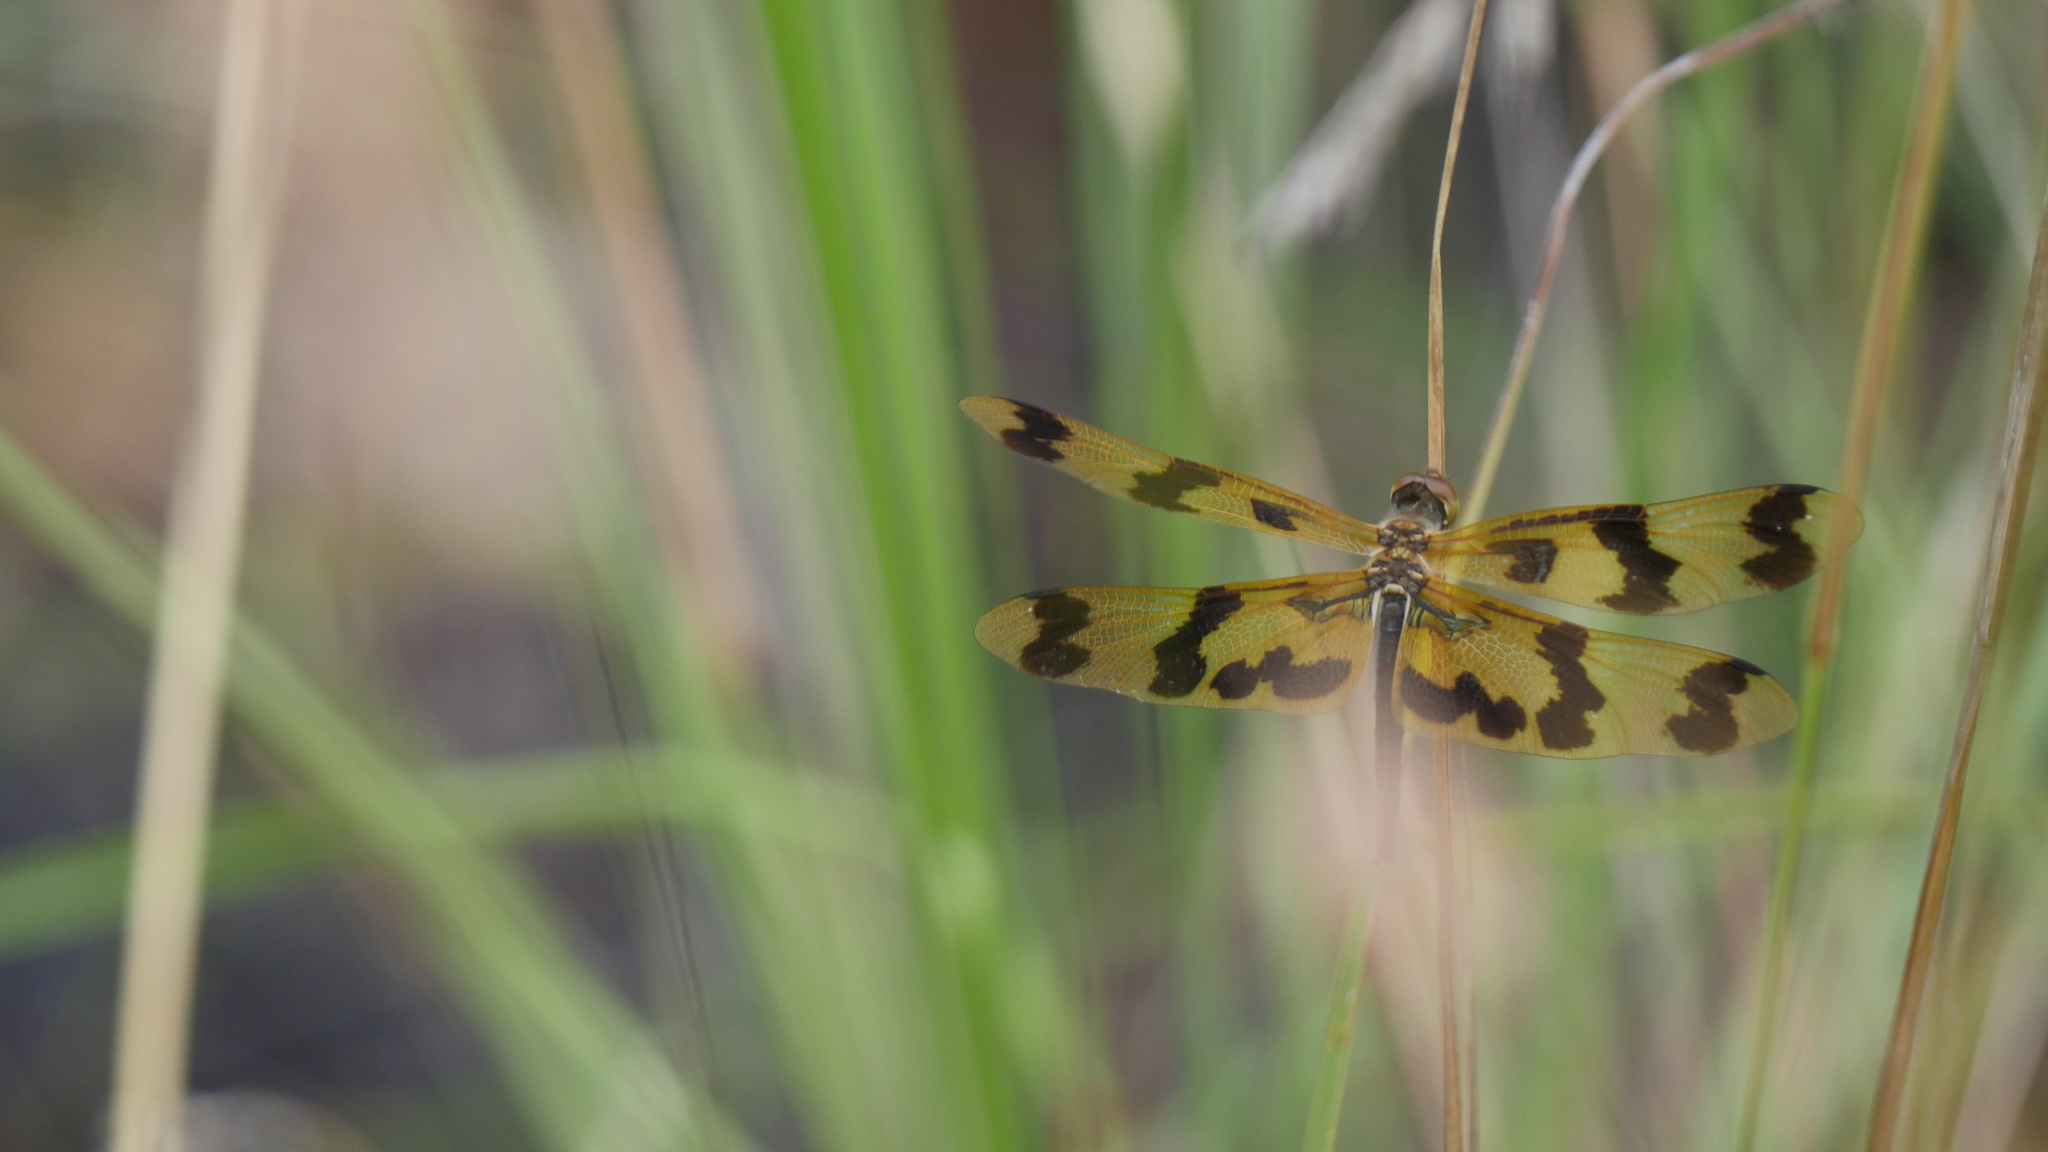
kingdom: Animalia
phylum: Arthropoda
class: Insecta
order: Odonata
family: Libellulidae
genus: Rhyothemis
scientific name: Rhyothemis graphiptera
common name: Graphic flutterer
